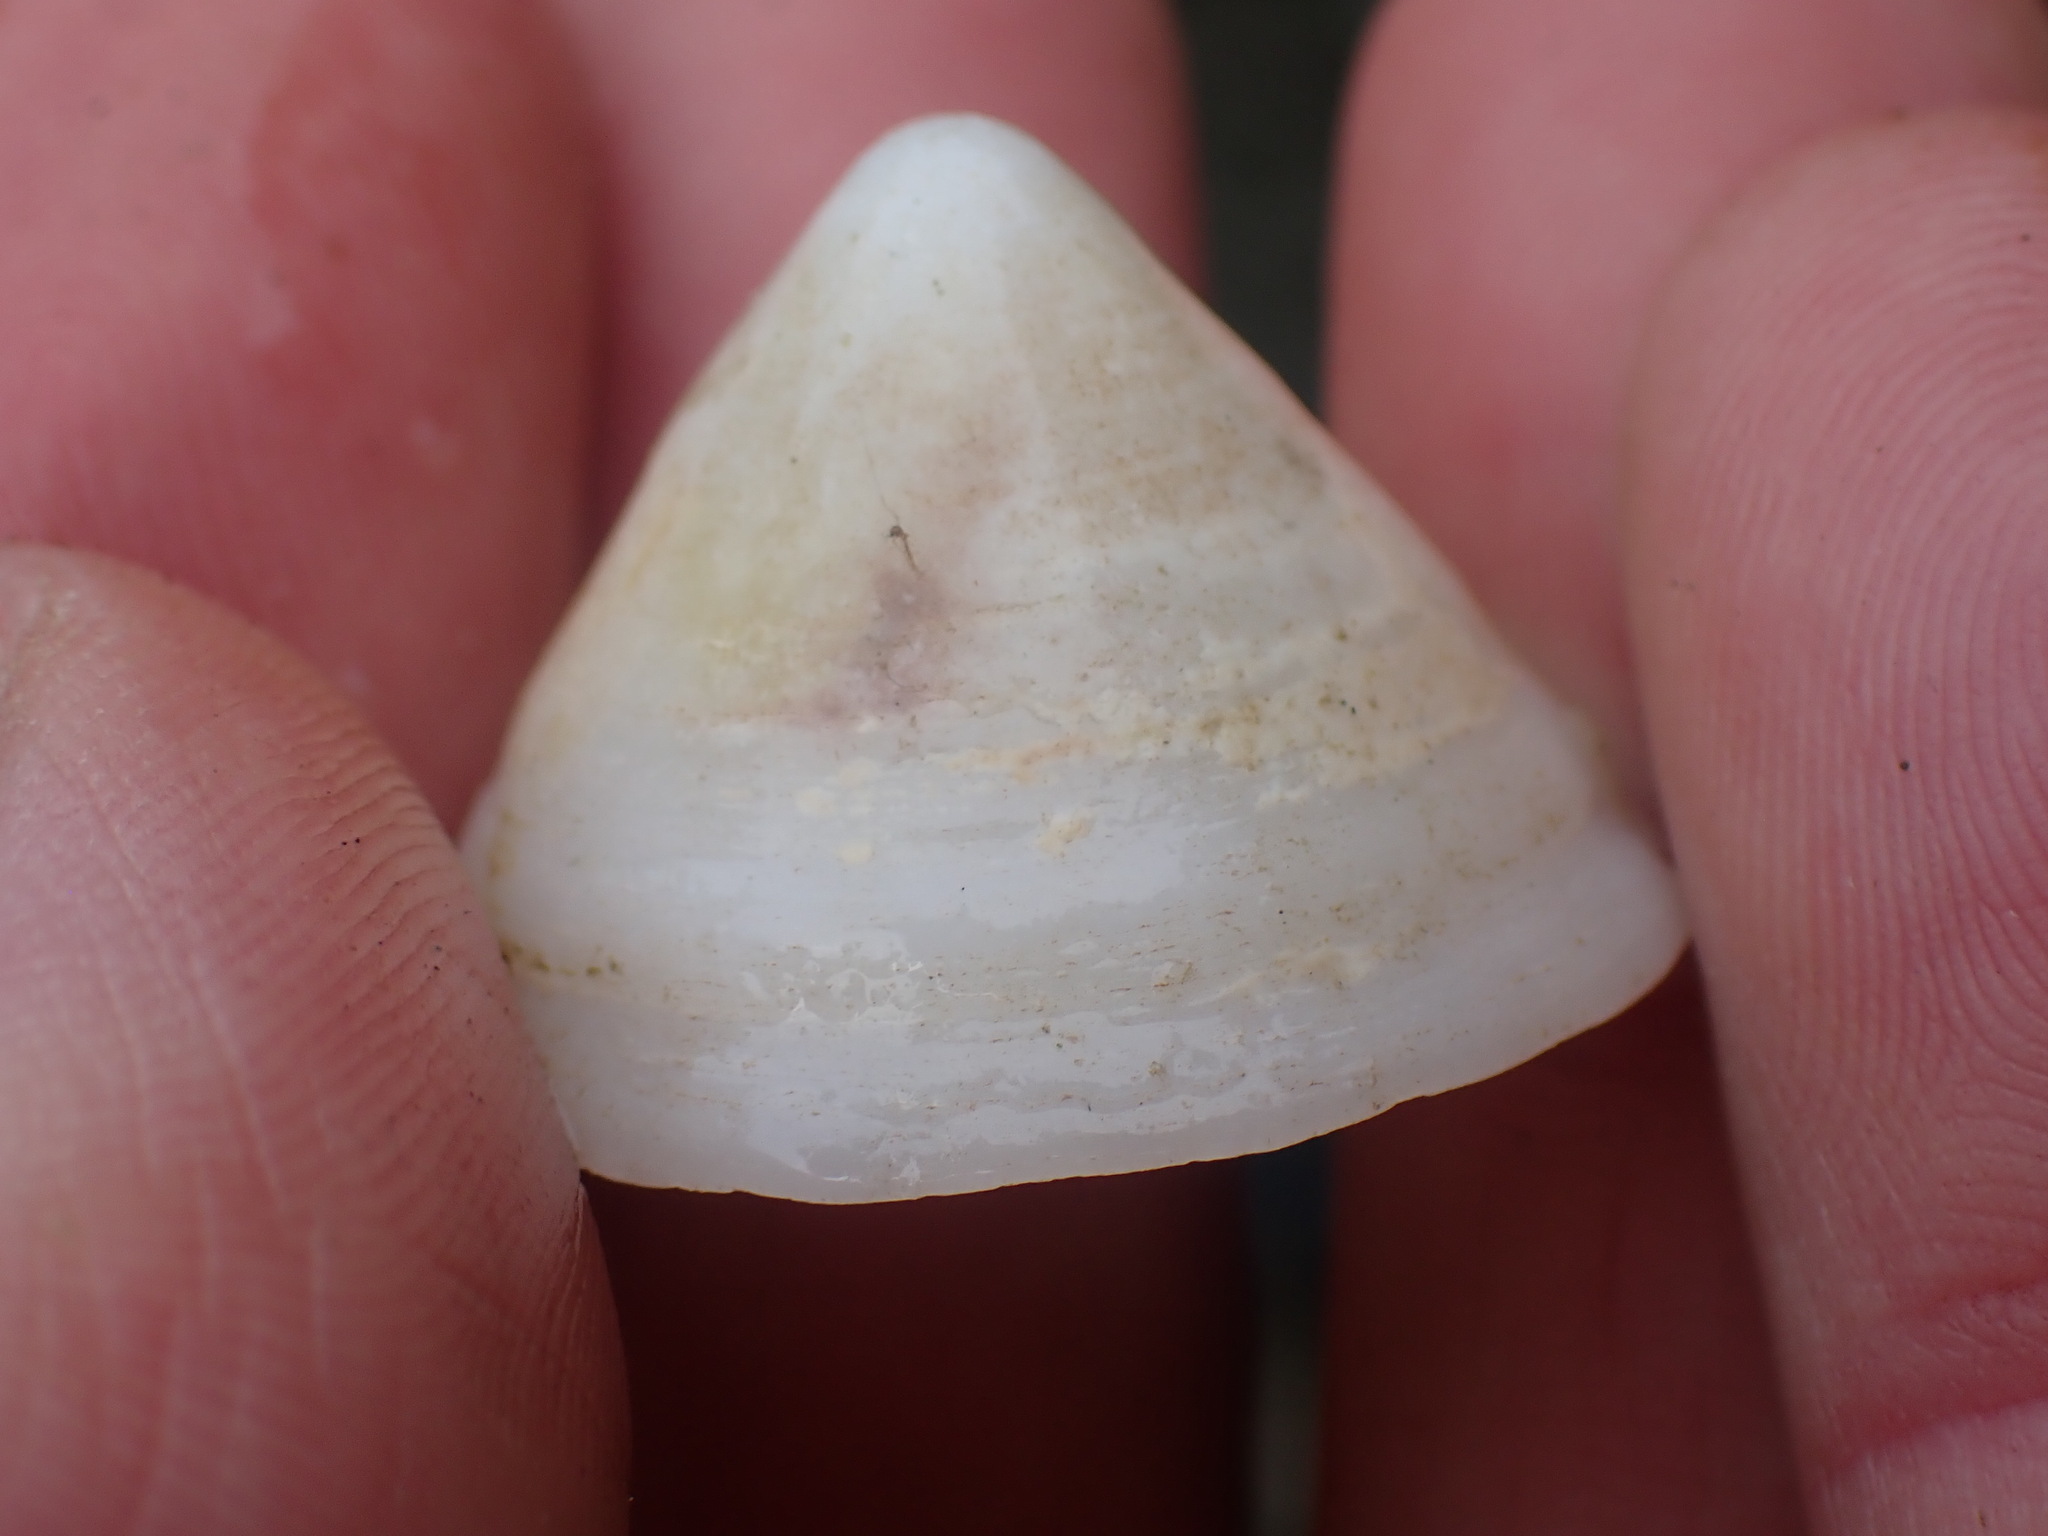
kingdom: Animalia
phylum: Mollusca
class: Gastropoda
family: Acmaeidae
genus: Acmaea
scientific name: Acmaea mitra
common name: Pacific white cap limpet
